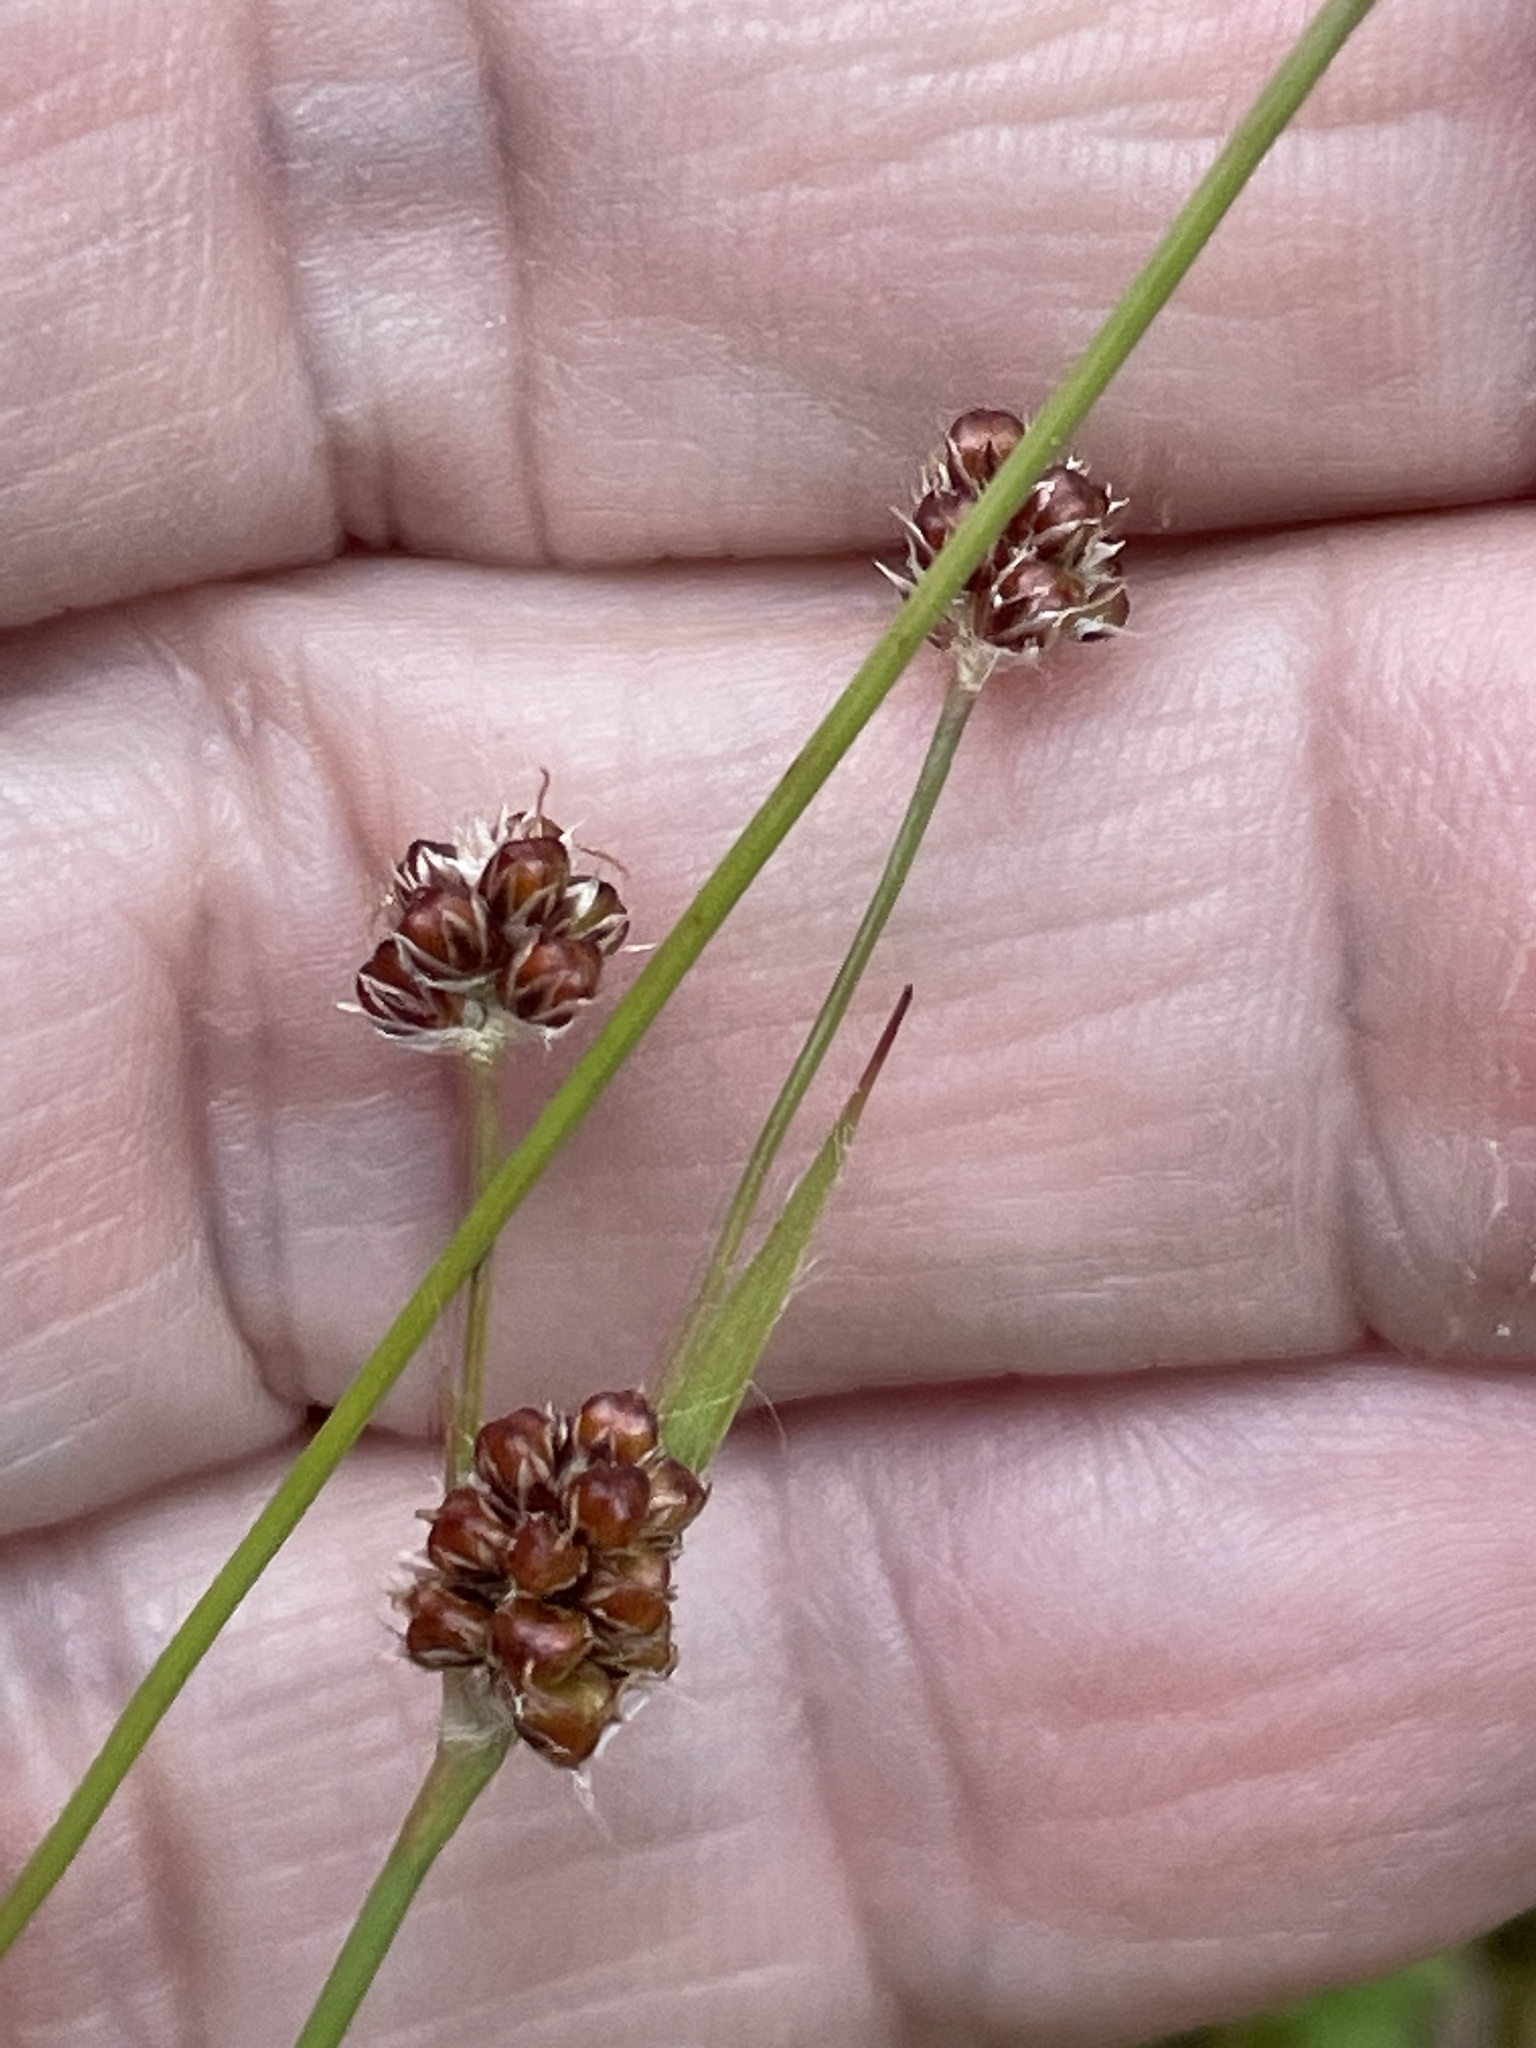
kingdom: Plantae
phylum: Tracheophyta
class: Liliopsida
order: Poales
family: Juncaceae
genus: Luzula
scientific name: Luzula echinata
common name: Hedgehog woodrush
